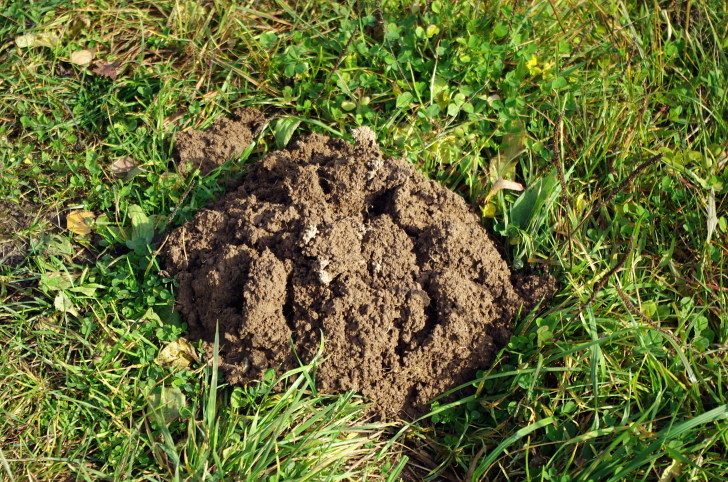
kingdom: Animalia
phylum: Chordata
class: Mammalia
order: Soricomorpha
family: Talpidae
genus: Talpa
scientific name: Talpa europaea
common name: European mole
